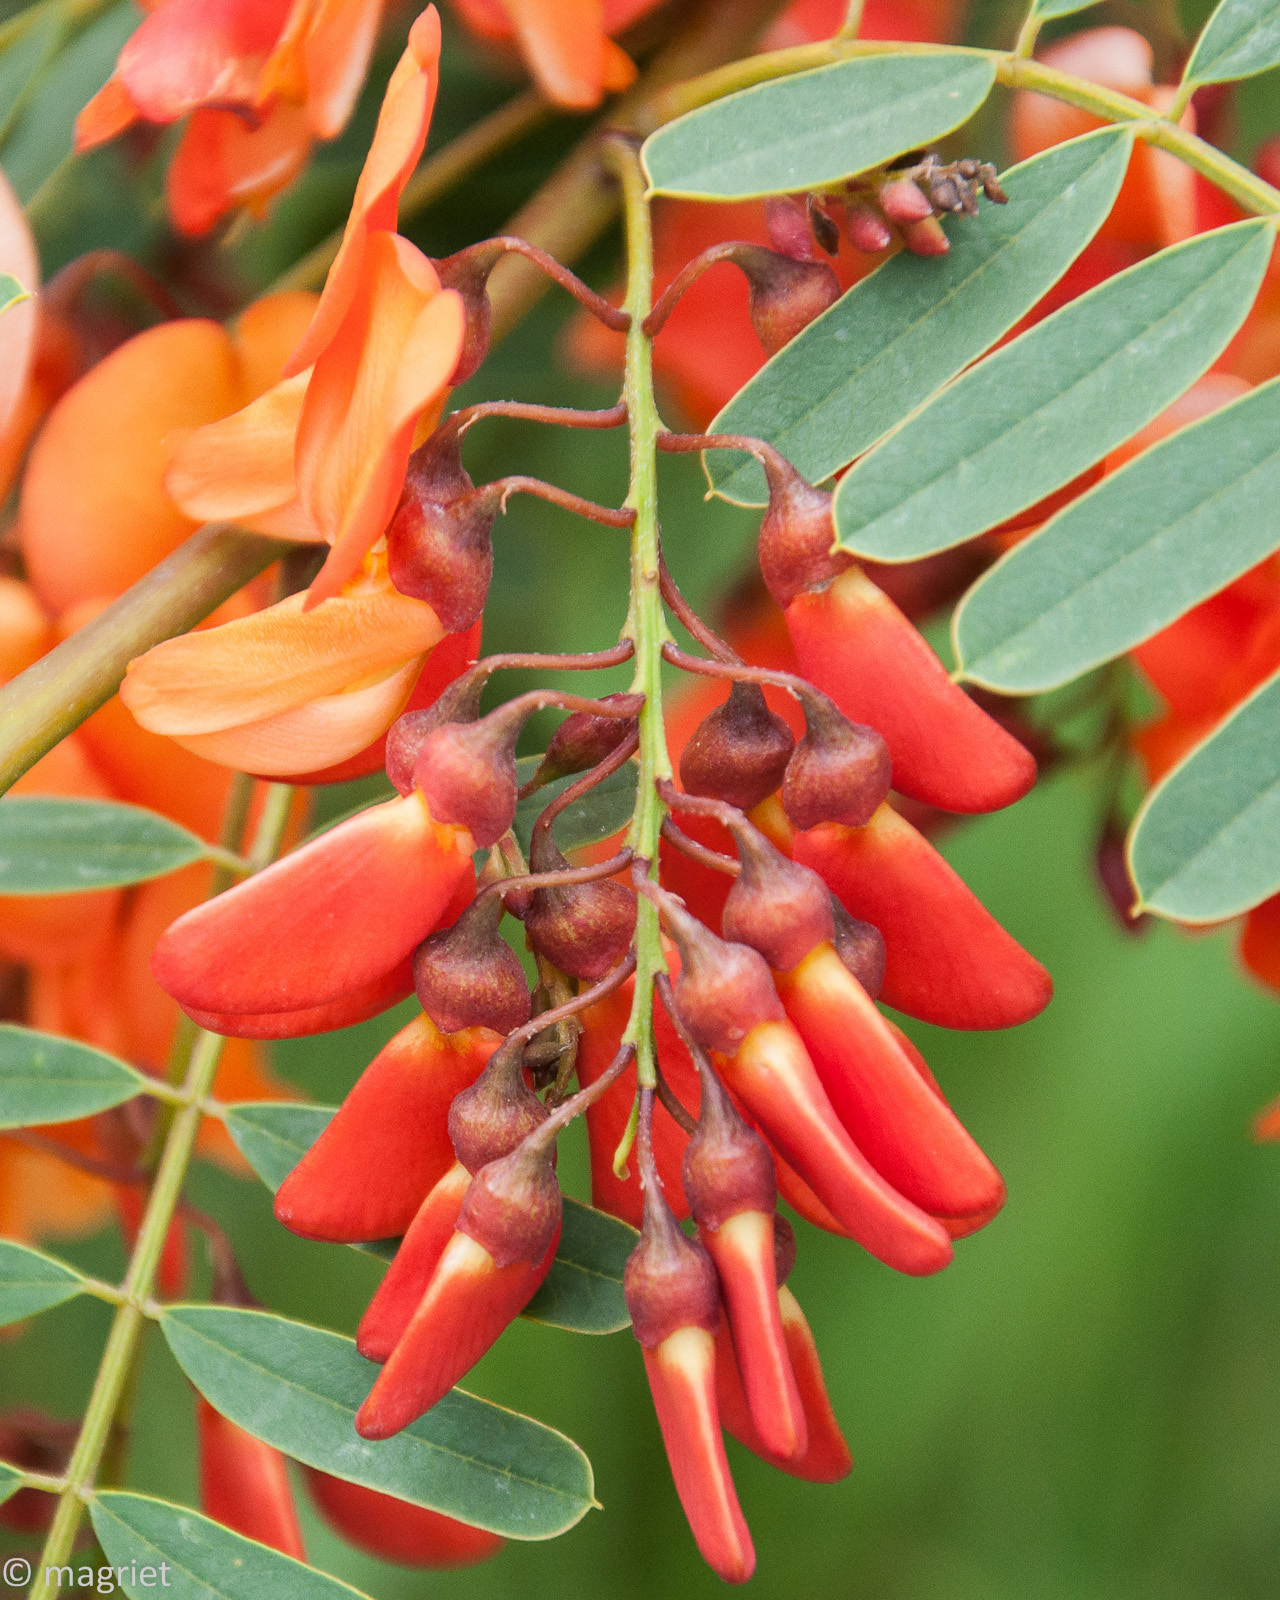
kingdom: Plantae
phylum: Tracheophyta
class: Magnoliopsida
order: Fabales
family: Fabaceae
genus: Sesbania
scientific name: Sesbania punicea
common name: Rattlebox
